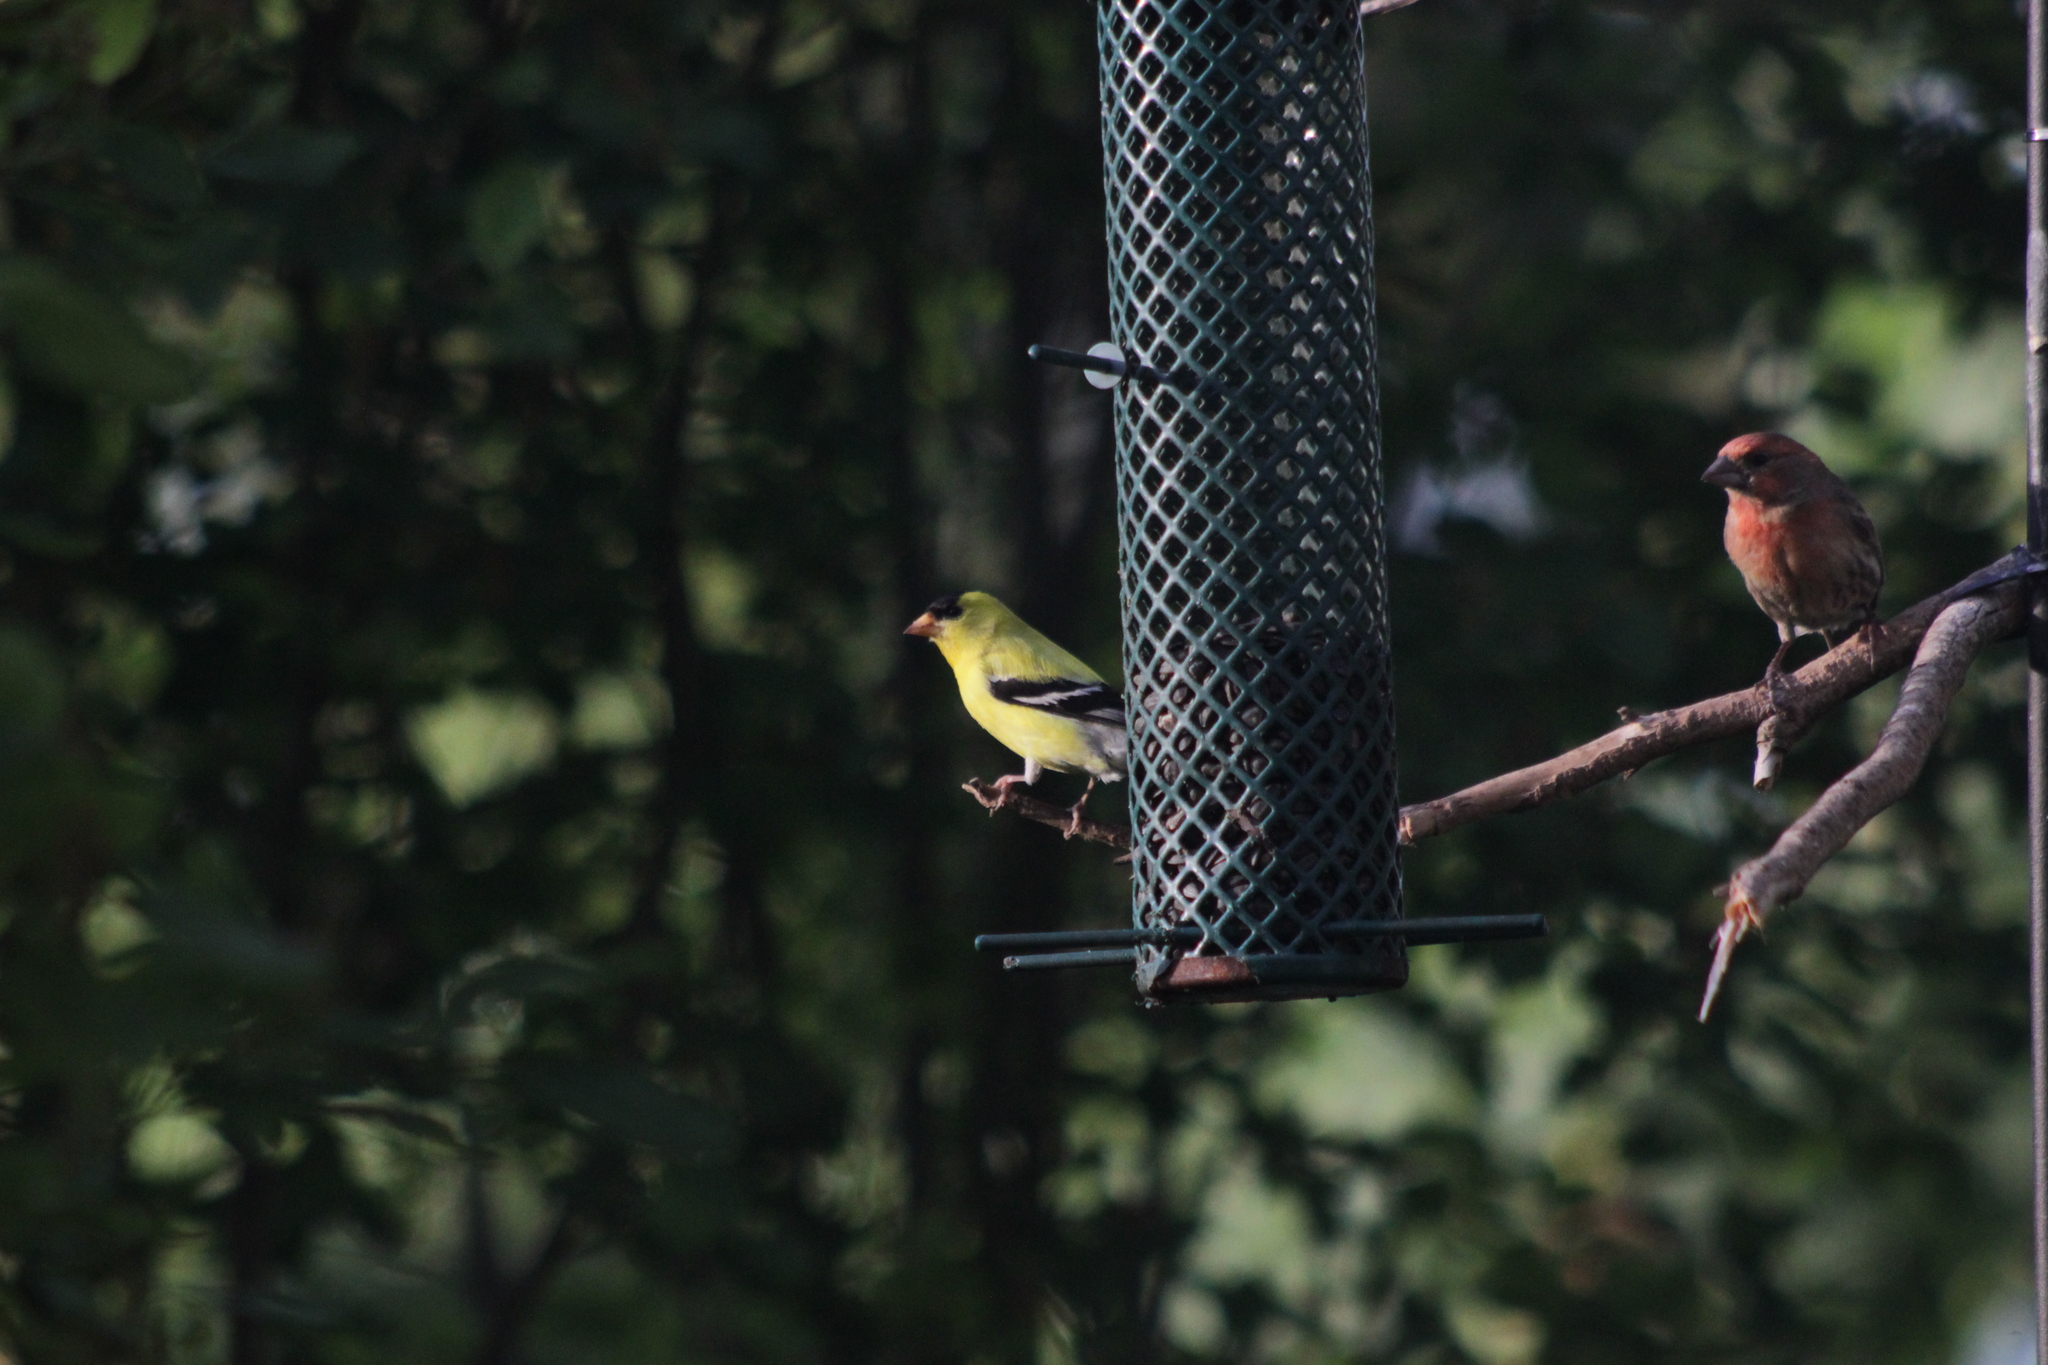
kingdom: Animalia
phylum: Chordata
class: Aves
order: Passeriformes
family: Fringillidae
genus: Spinus
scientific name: Spinus tristis
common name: American goldfinch
